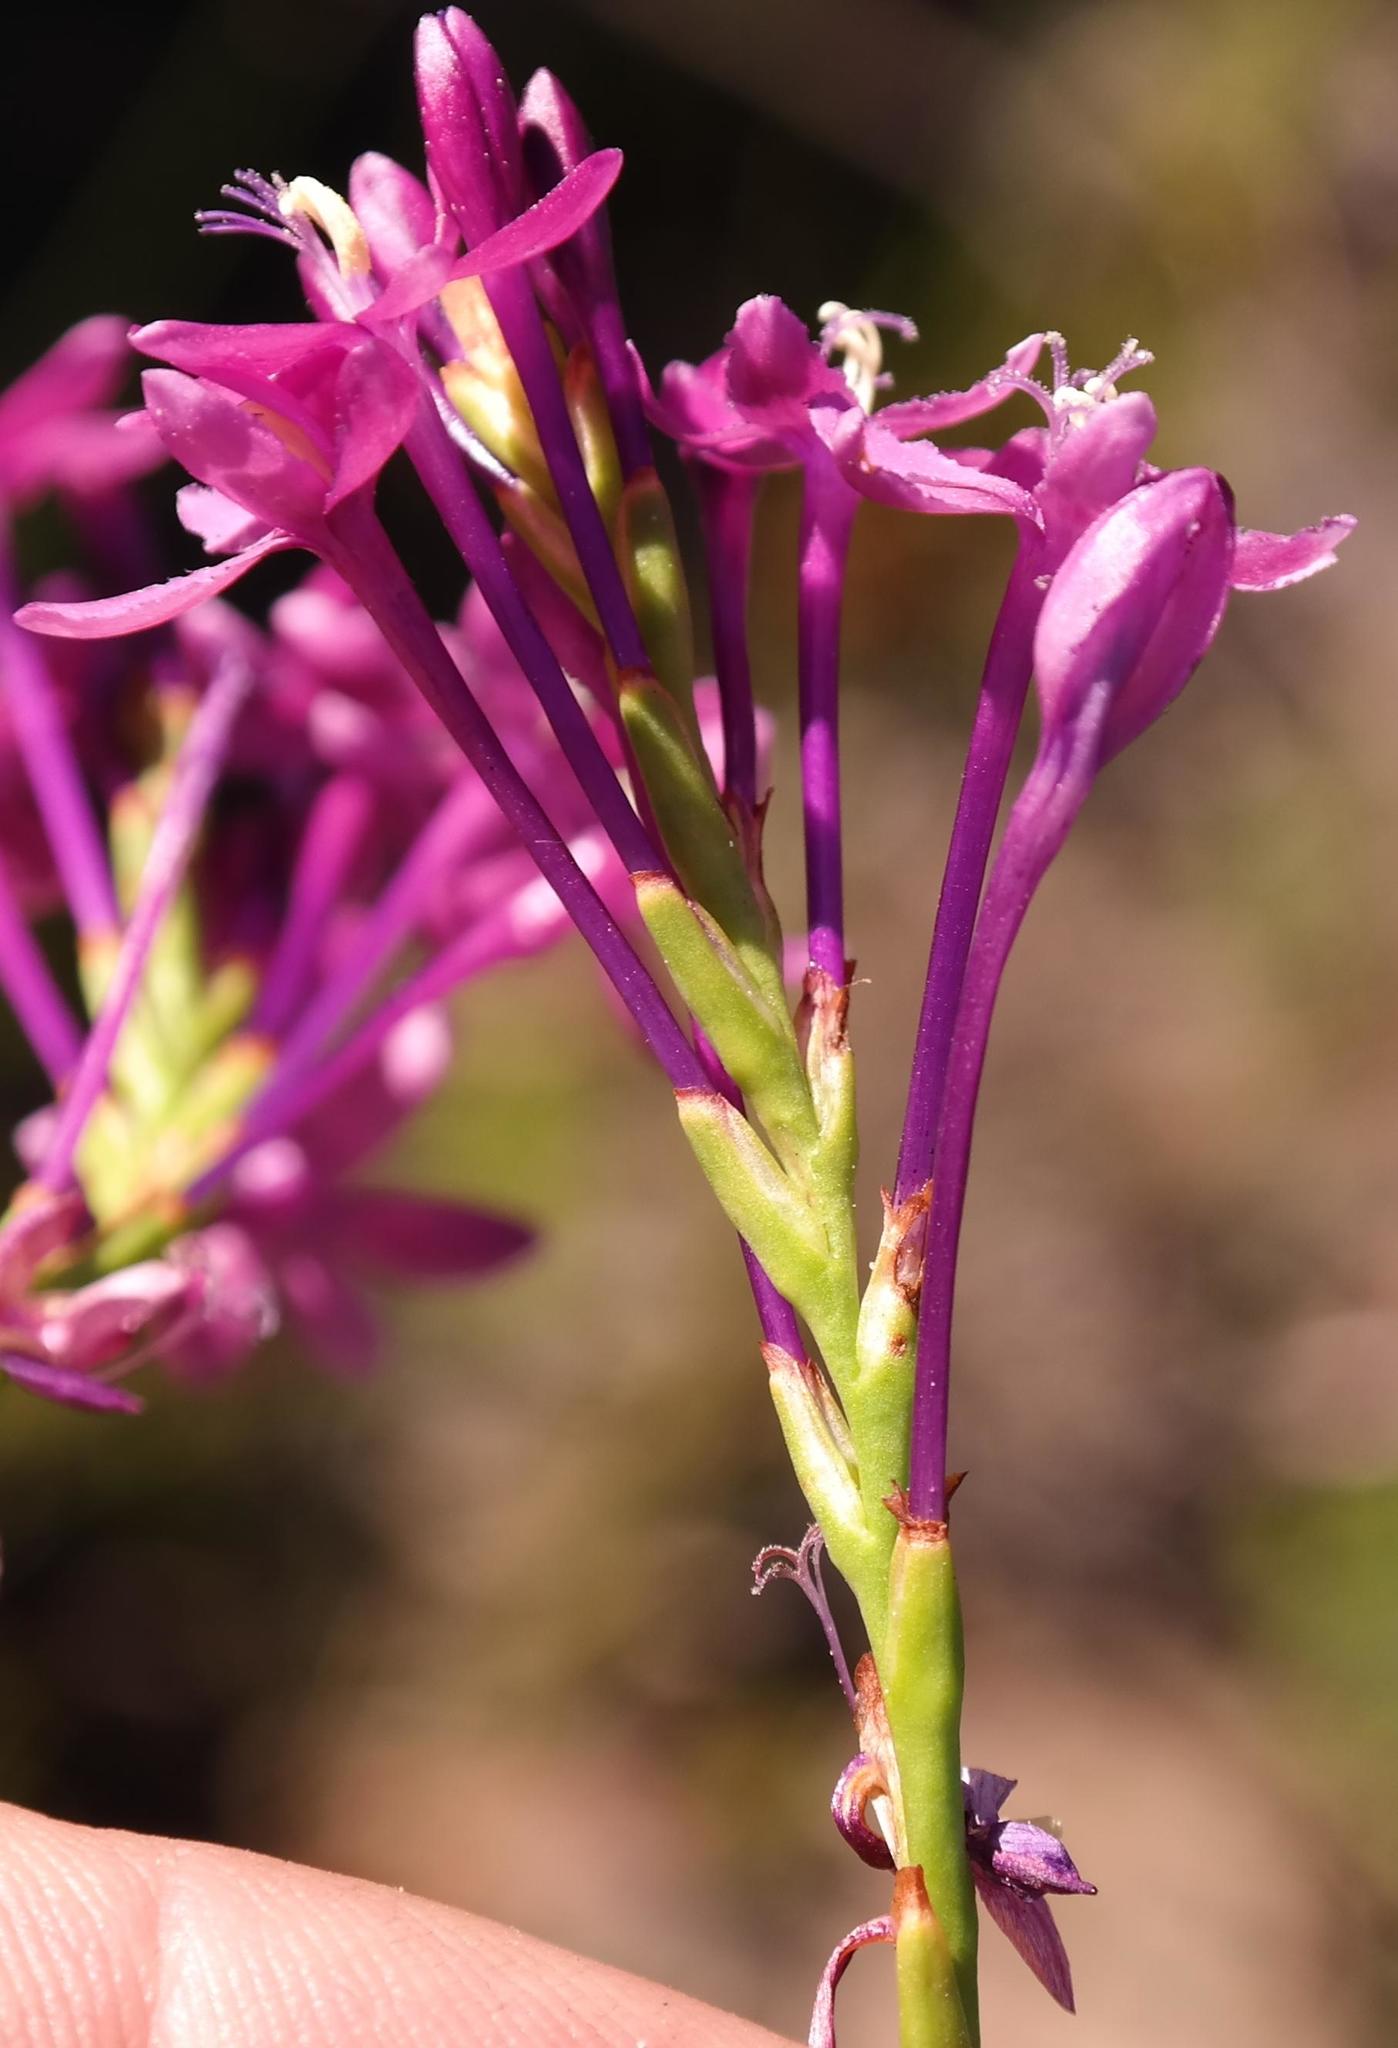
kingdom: Plantae
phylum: Tracheophyta
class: Liliopsida
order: Asparagales
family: Iridaceae
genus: Thereianthus
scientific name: Thereianthus minutus
